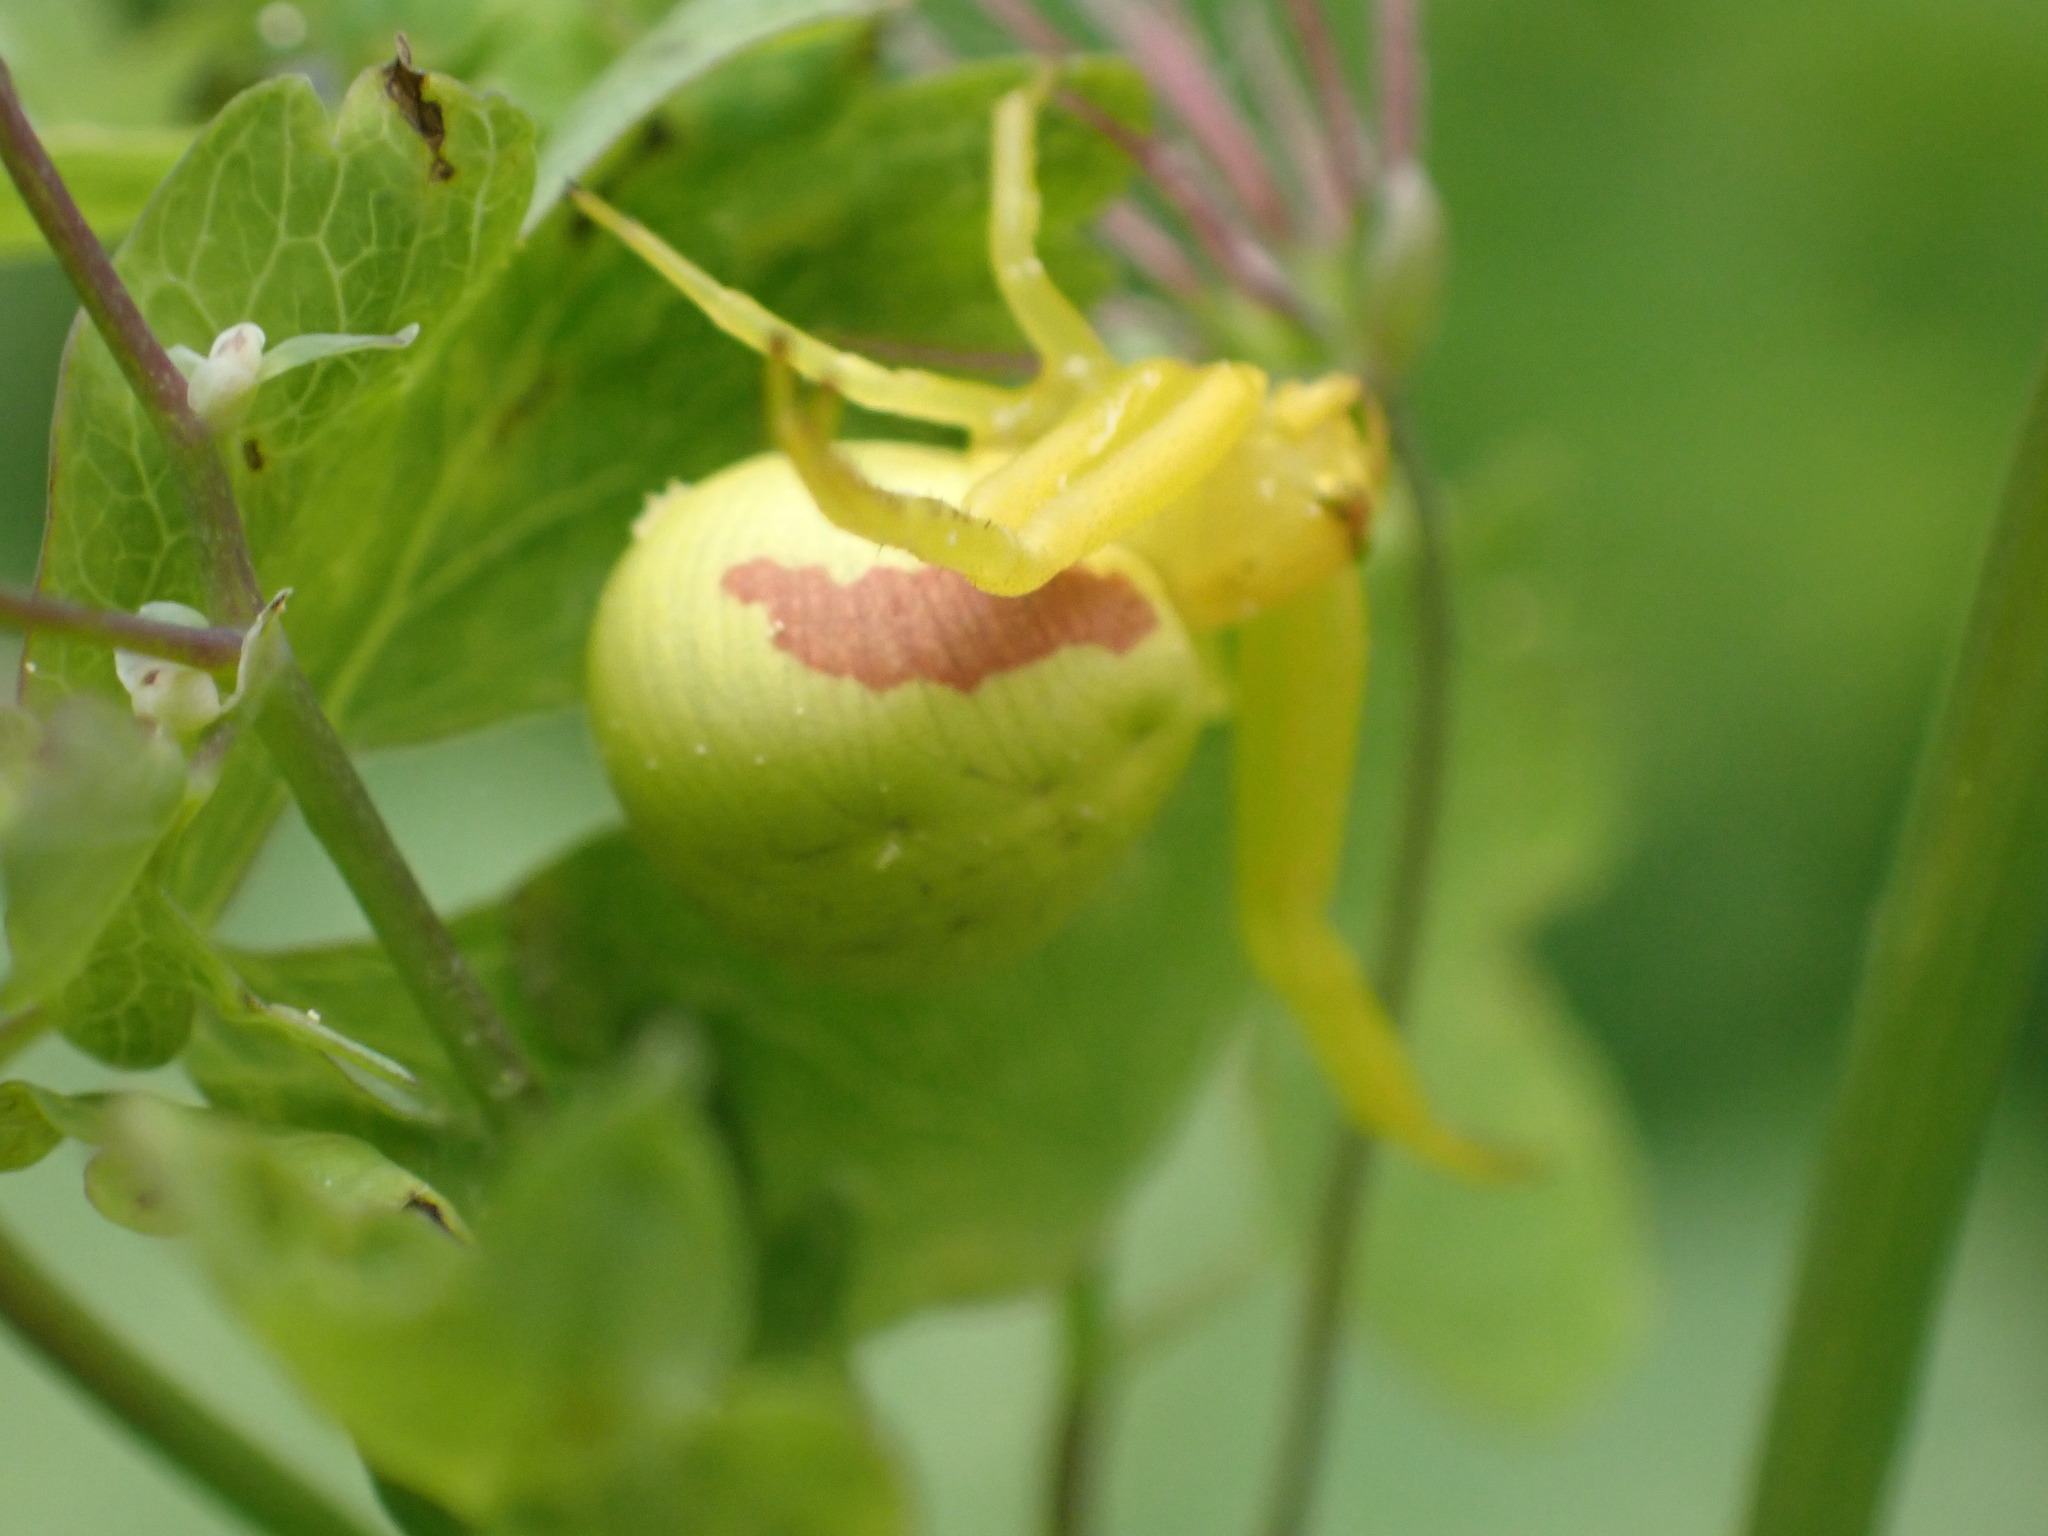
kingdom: Animalia
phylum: Arthropoda
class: Arachnida
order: Araneae
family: Thomisidae
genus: Misumena
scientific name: Misumena vatia
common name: Goldenrod crab spider
